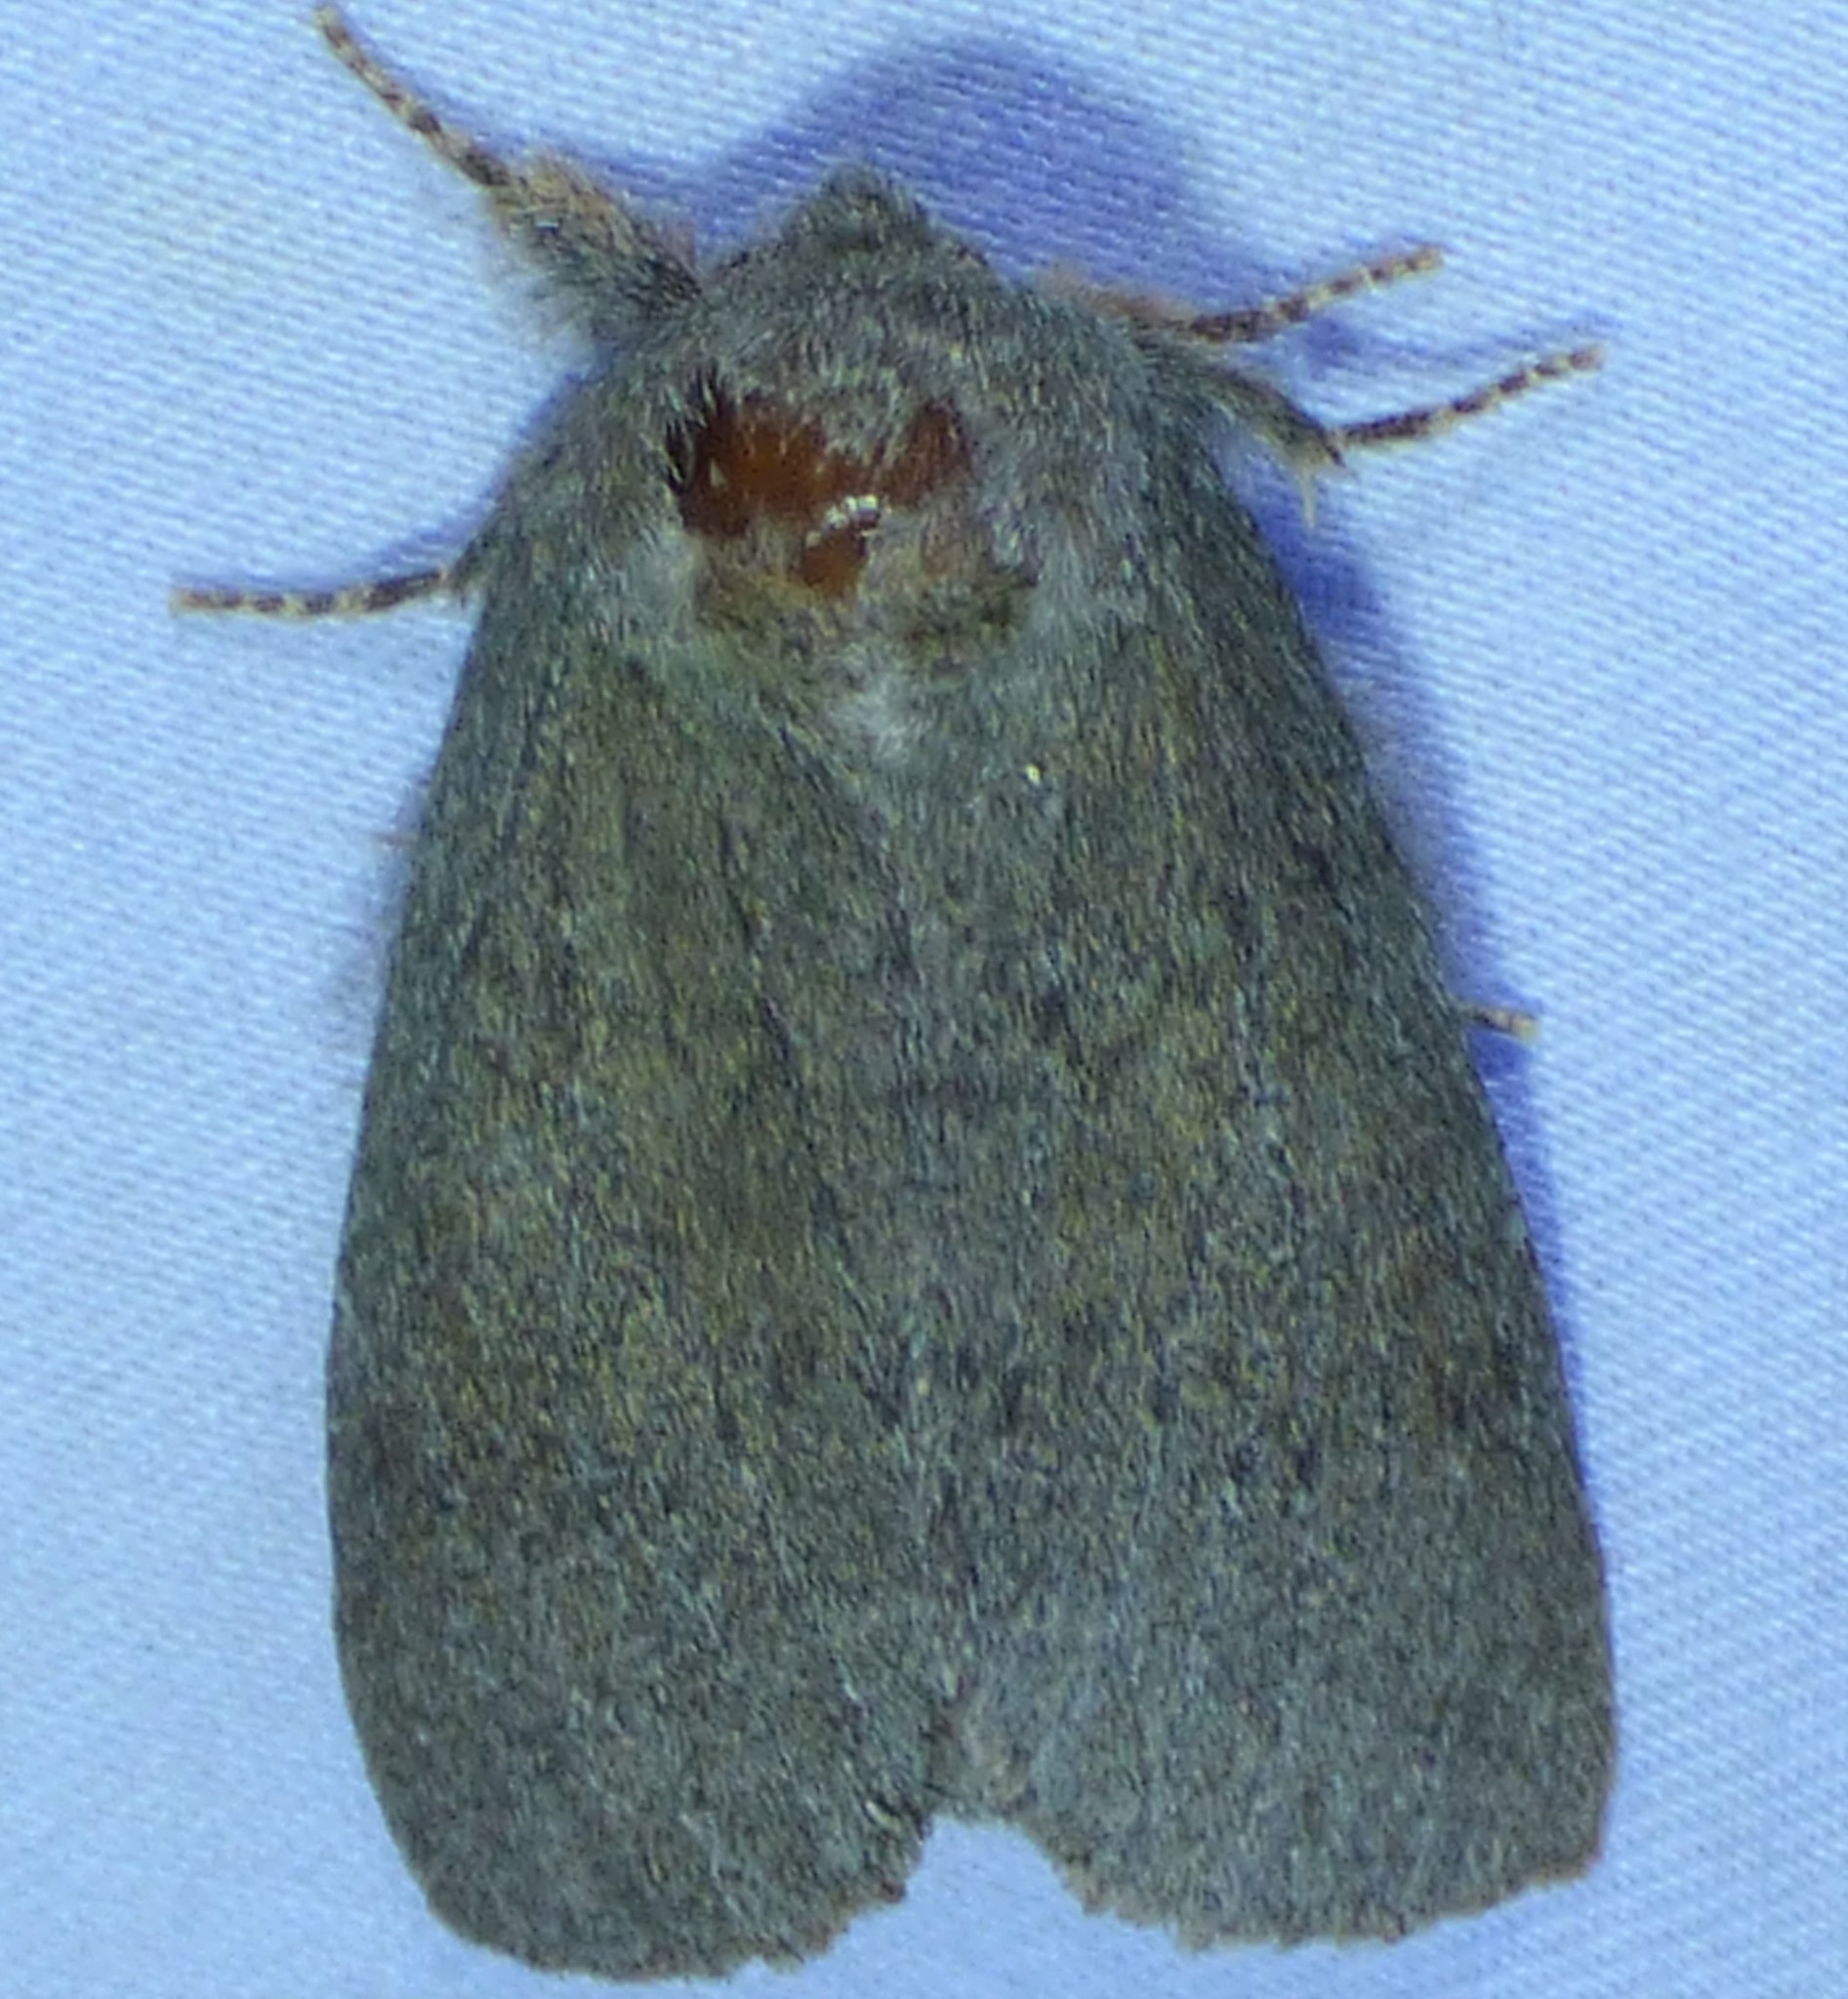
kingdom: Animalia
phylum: Arthropoda
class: Insecta
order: Lepidoptera
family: Notodontidae
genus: Misogada
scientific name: Misogada unicolor
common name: Drab prominent
